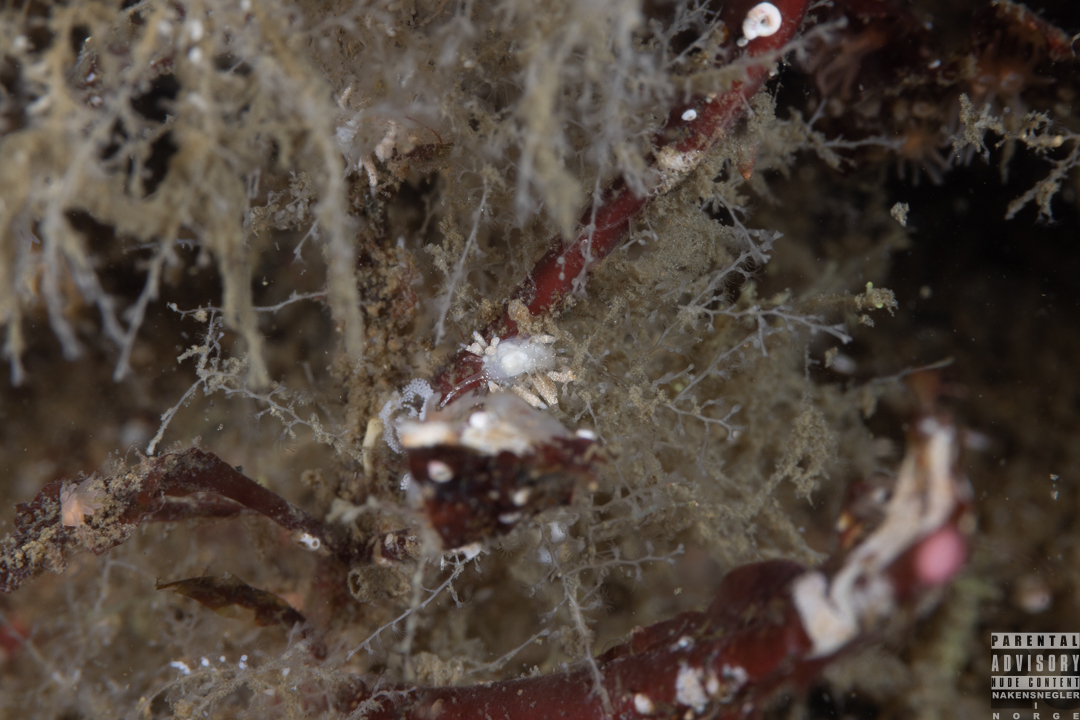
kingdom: Animalia
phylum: Mollusca
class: Gastropoda
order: Nudibranchia
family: Trinchesiidae
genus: Rubramoena
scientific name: Rubramoena amoena
